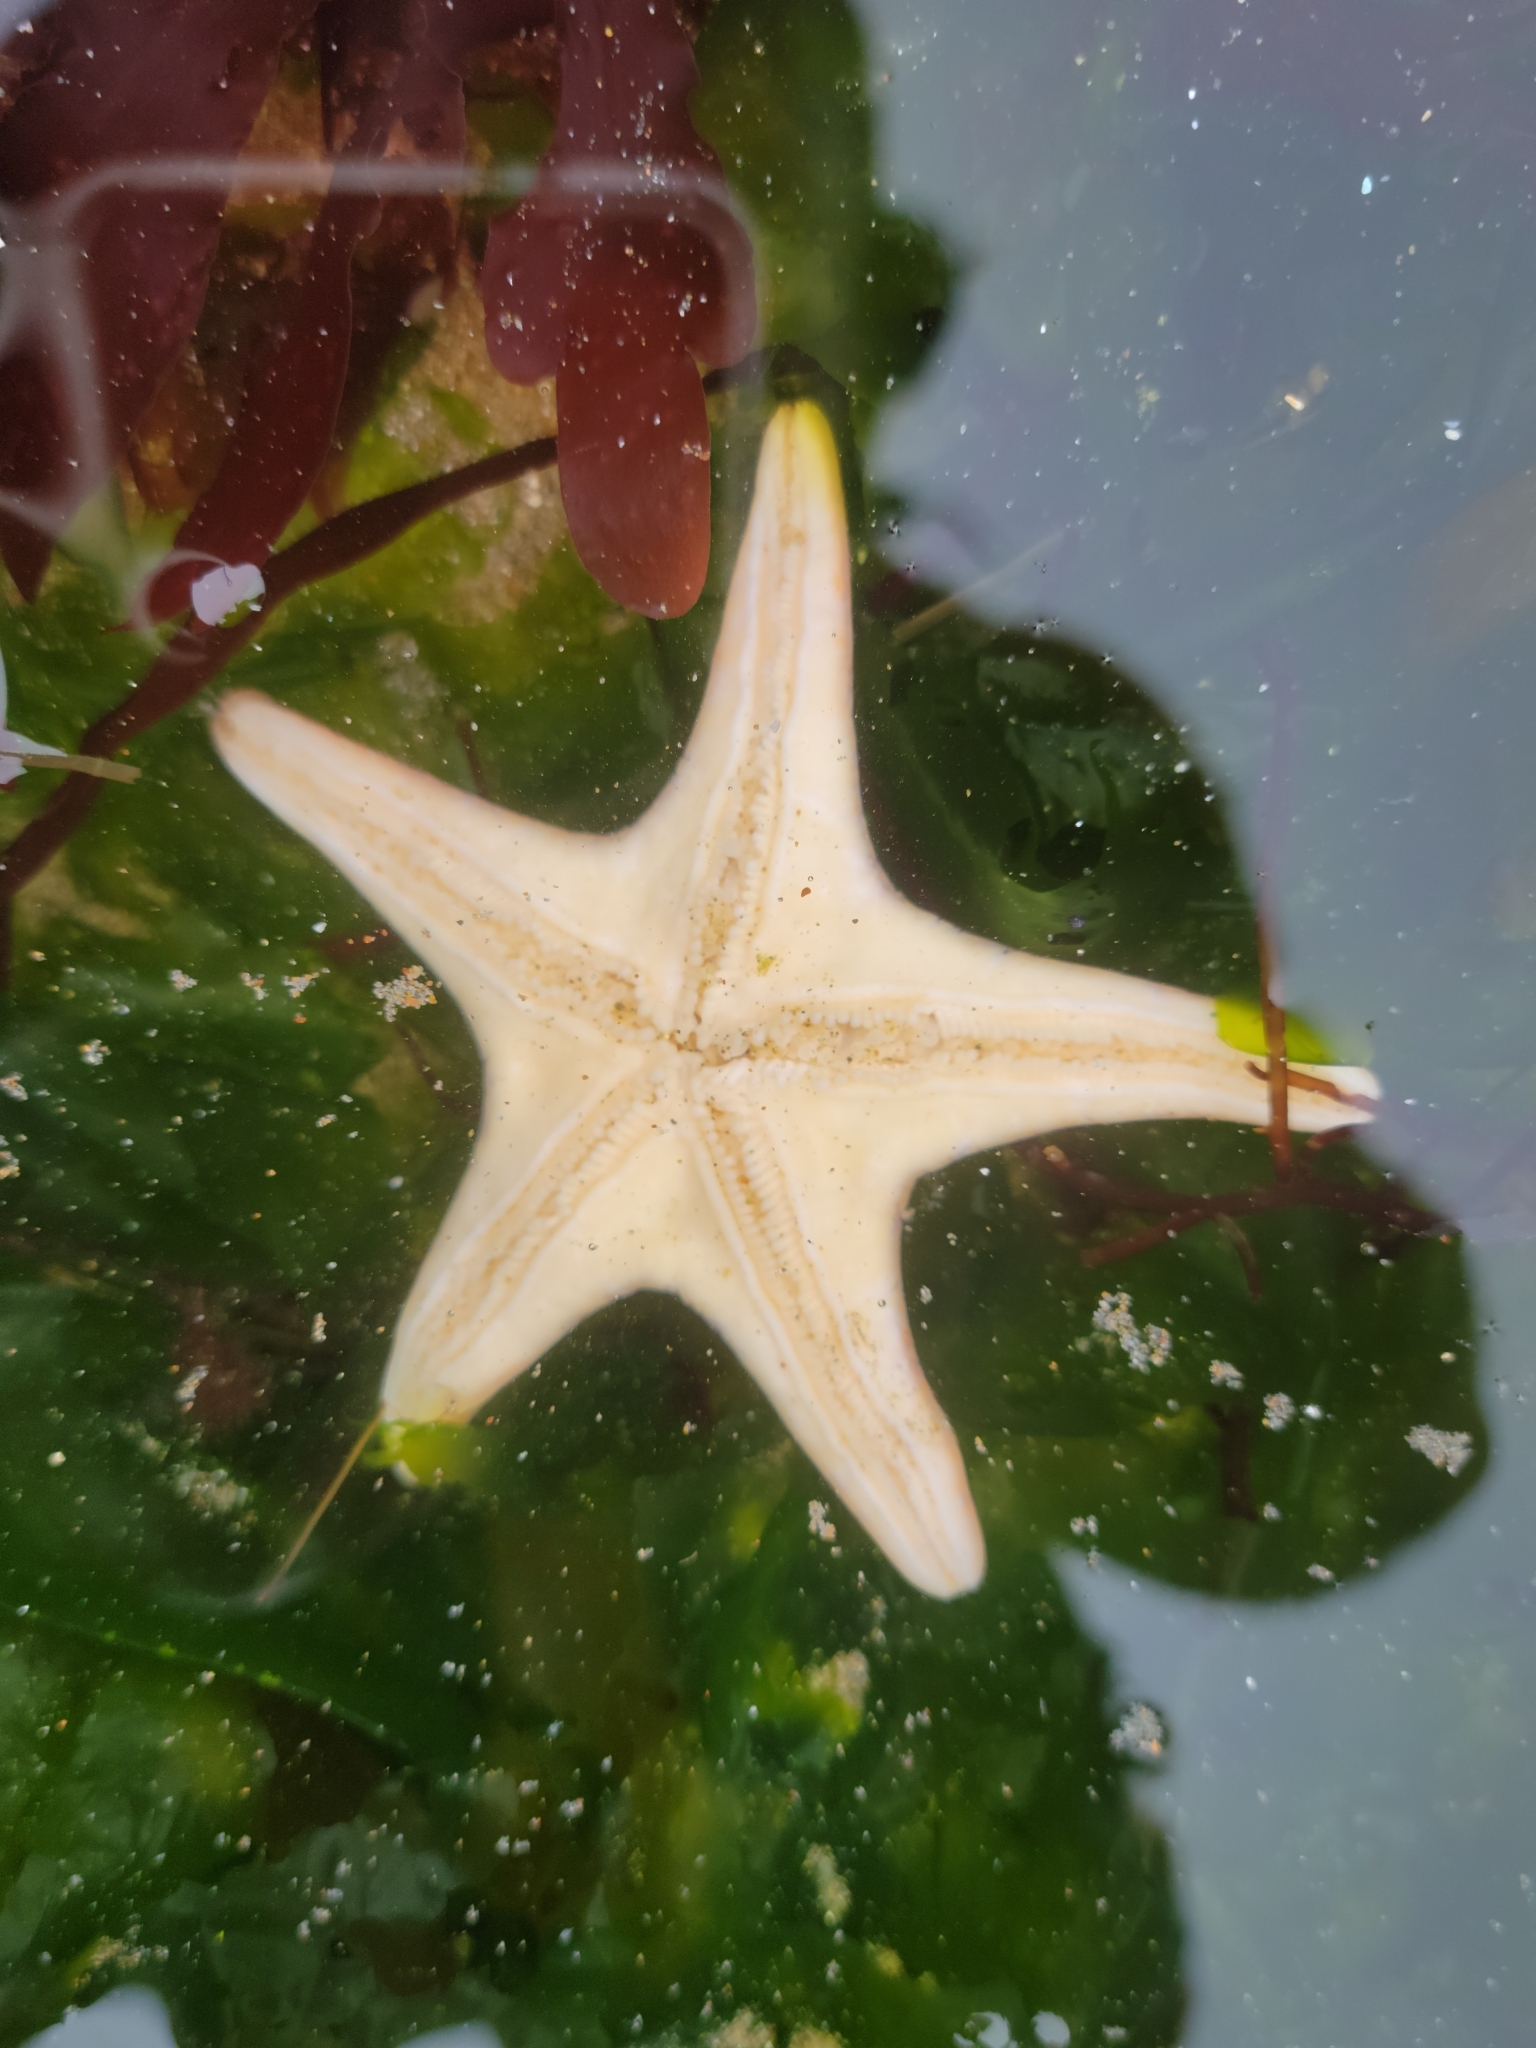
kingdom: Animalia
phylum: Echinodermata
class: Asteroidea
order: Valvatida
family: Asteropseidae
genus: Dermasterias
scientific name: Dermasterias imbricata
